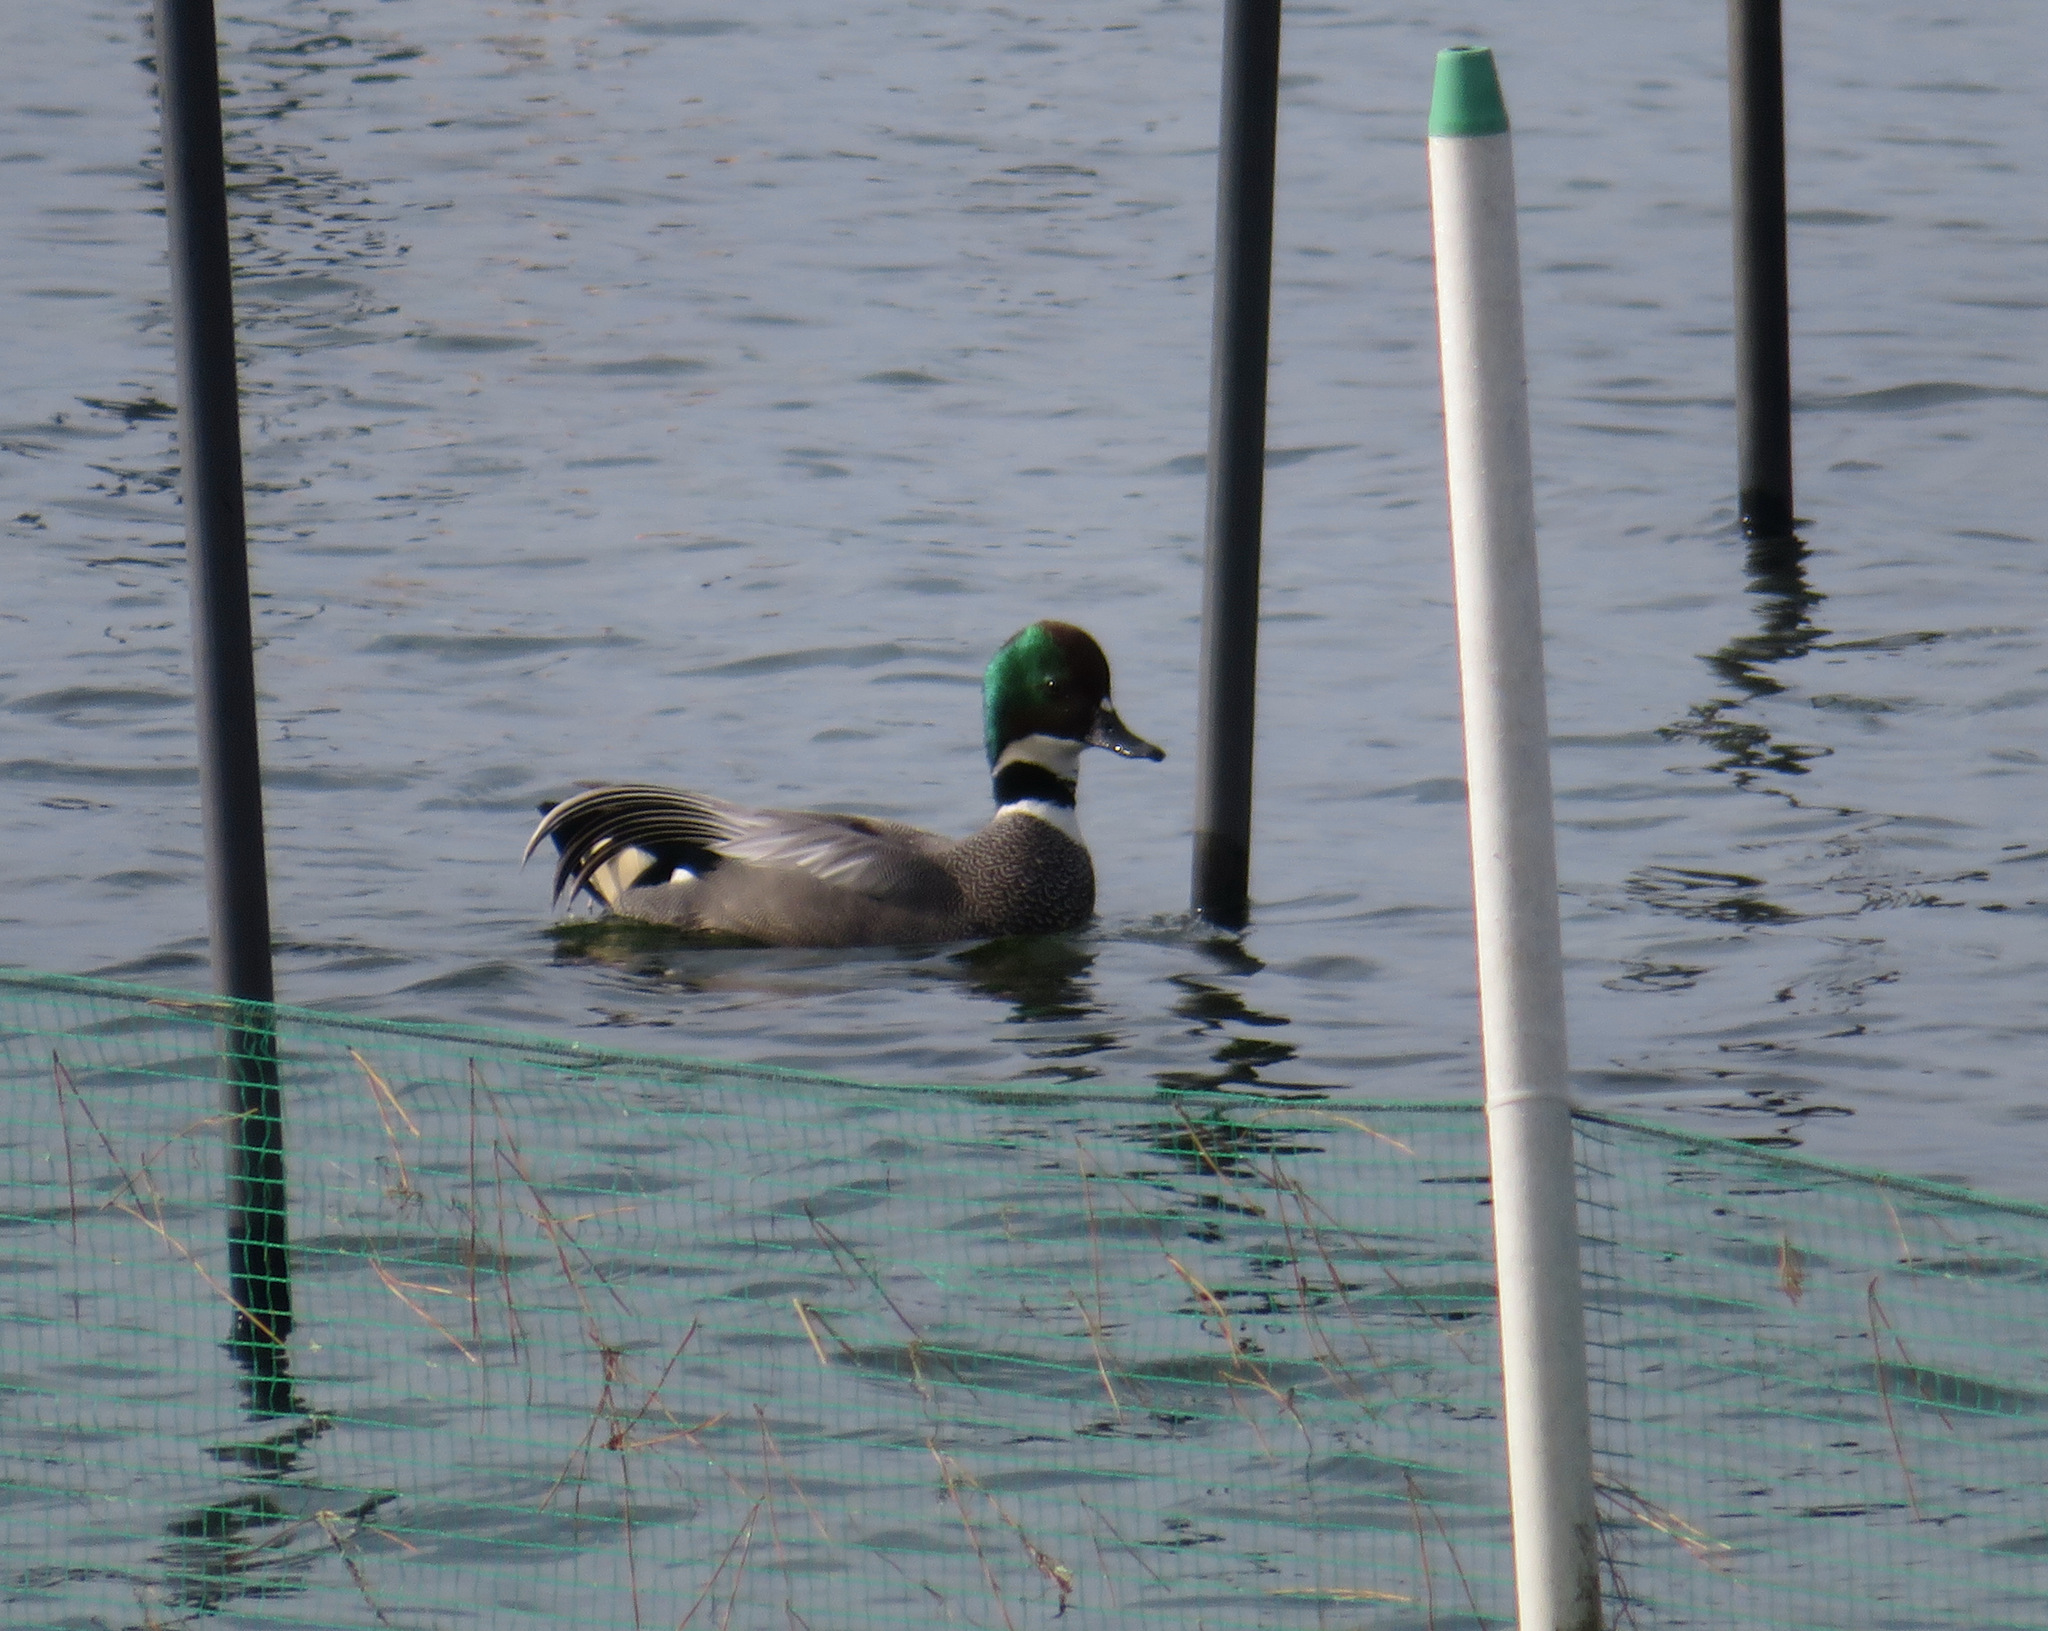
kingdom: Animalia
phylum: Chordata
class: Aves
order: Anseriformes
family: Anatidae
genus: Mareca
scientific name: Mareca falcata
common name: Falcated duck
